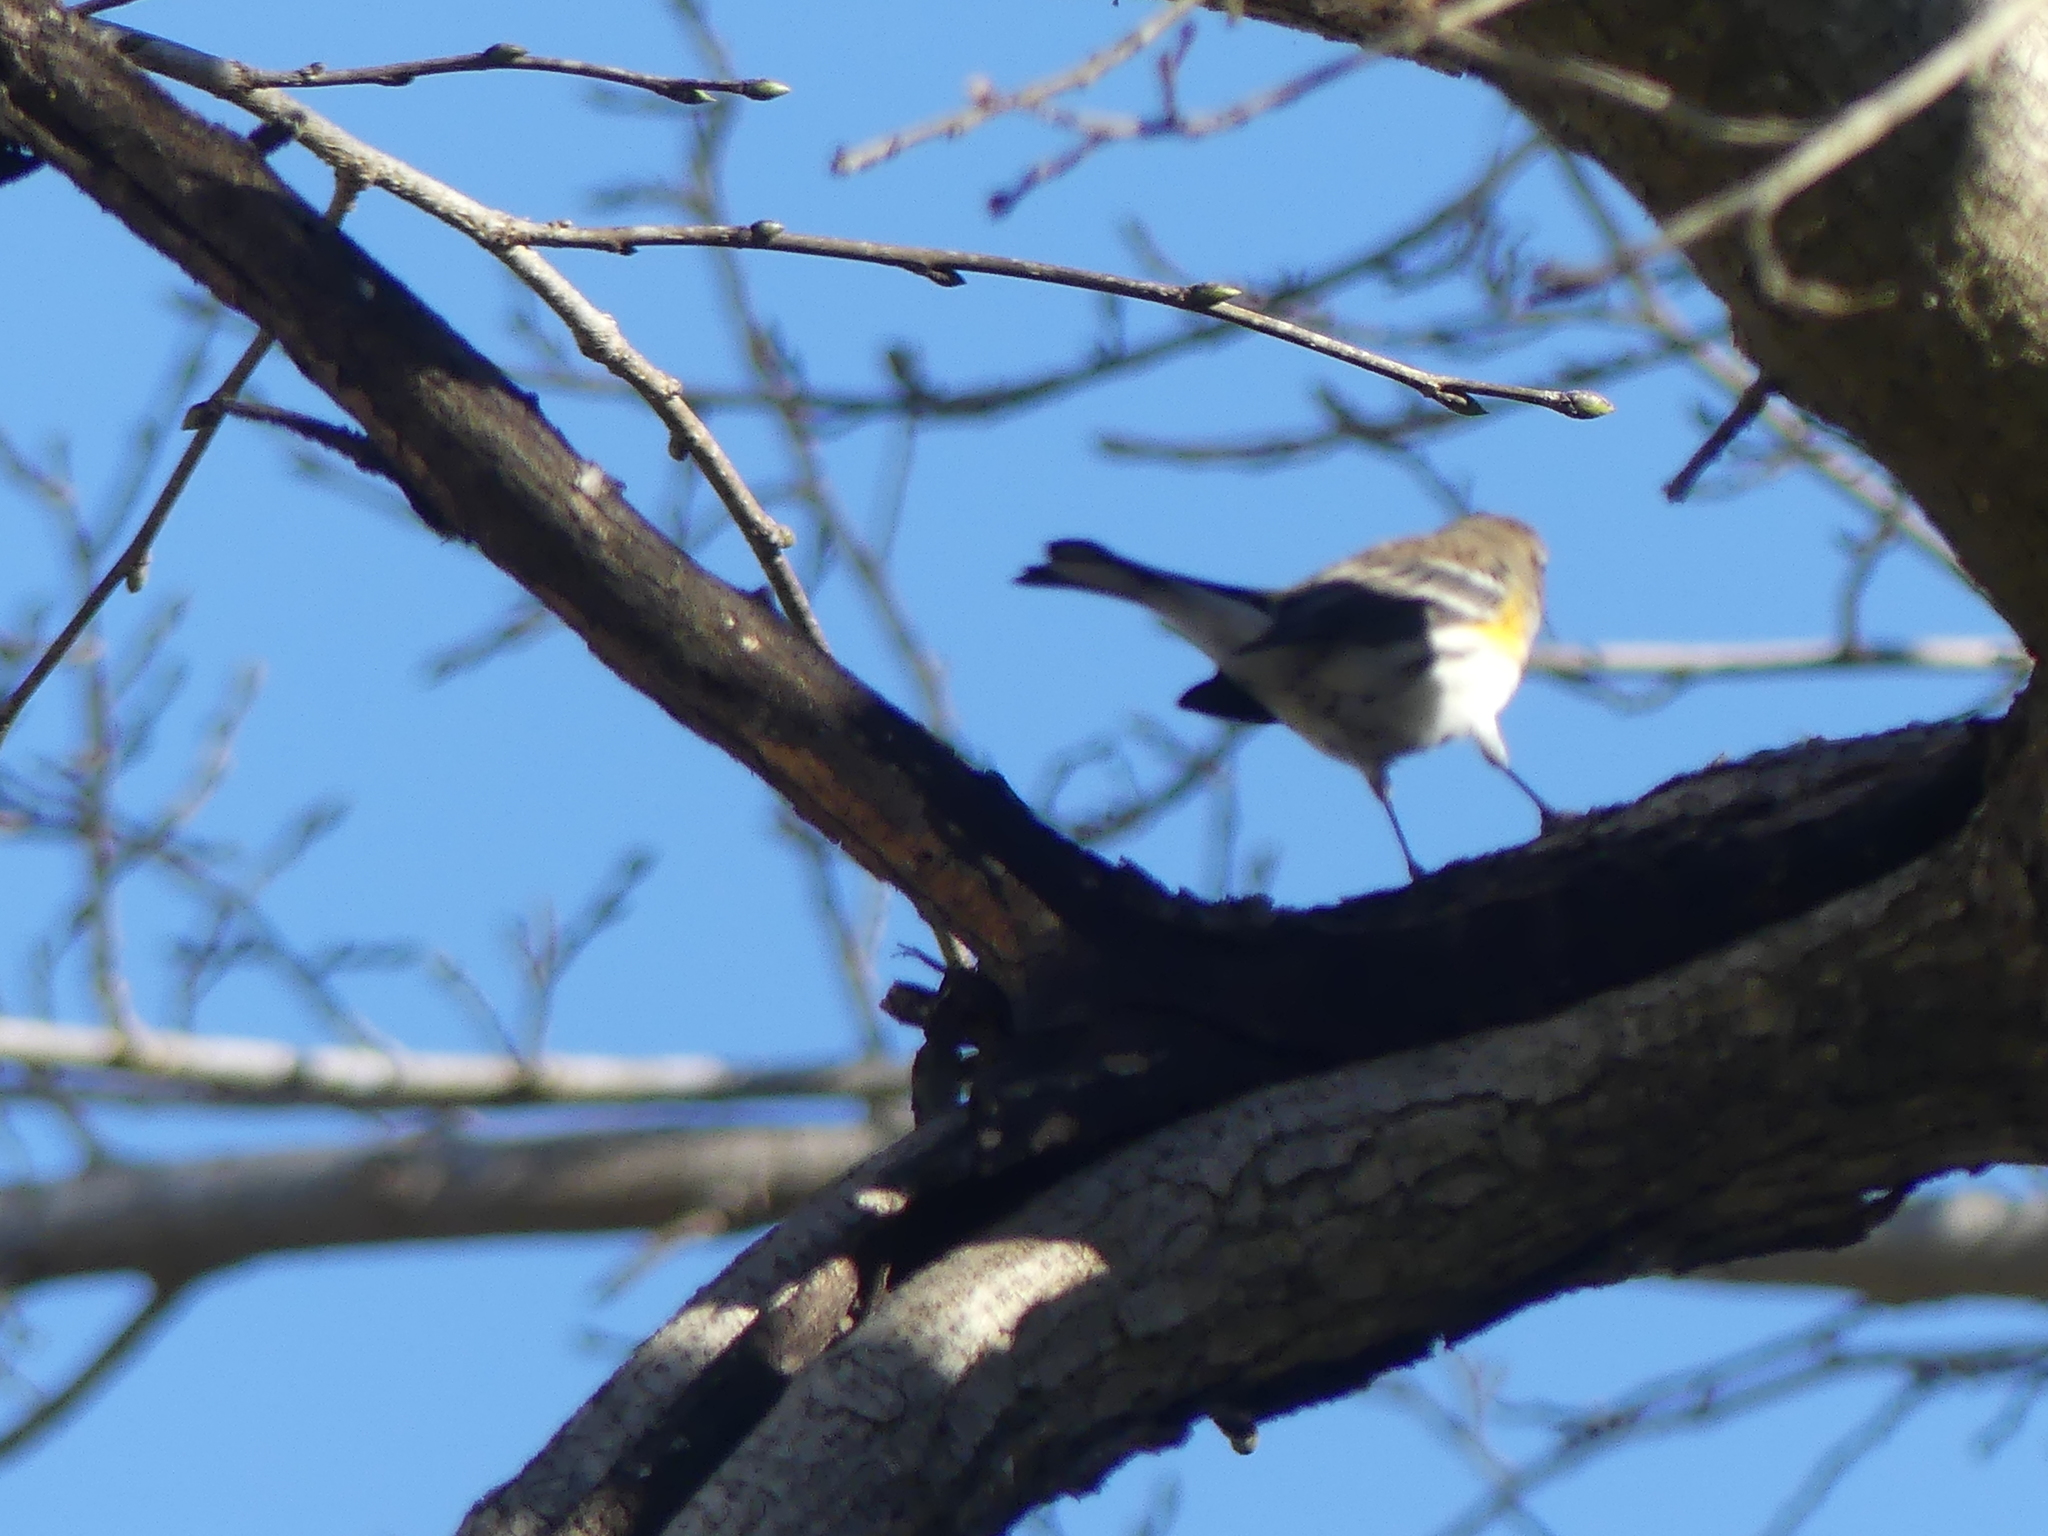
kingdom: Animalia
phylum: Chordata
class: Aves
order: Passeriformes
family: Parulidae
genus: Setophaga
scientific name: Setophaga coronata
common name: Myrtle warbler
